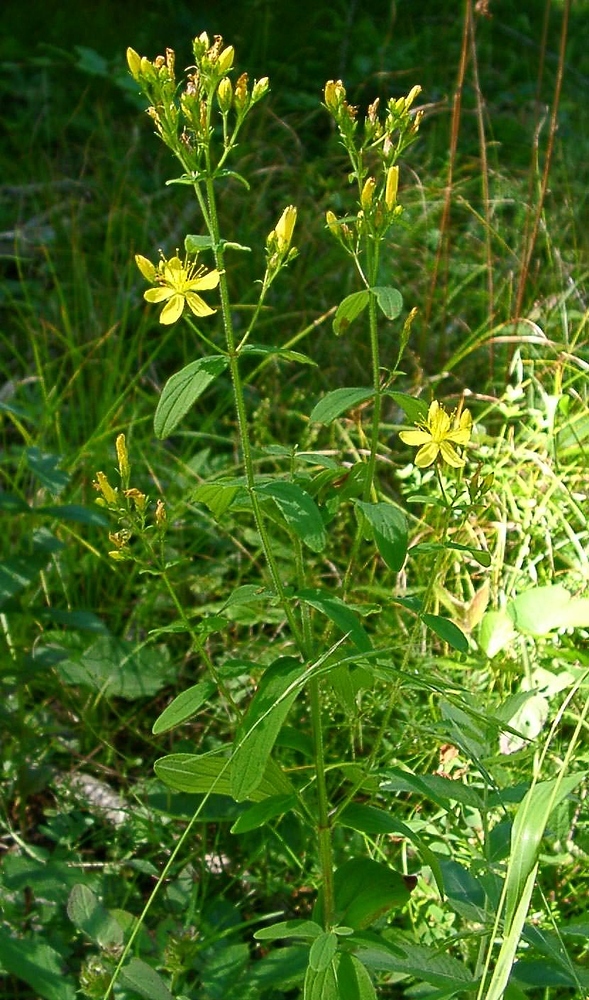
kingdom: Plantae
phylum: Tracheophyta
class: Magnoliopsida
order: Malpighiales
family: Hypericaceae
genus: Hypericum
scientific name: Hypericum hirsutum
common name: Hairy st. john's-wort
